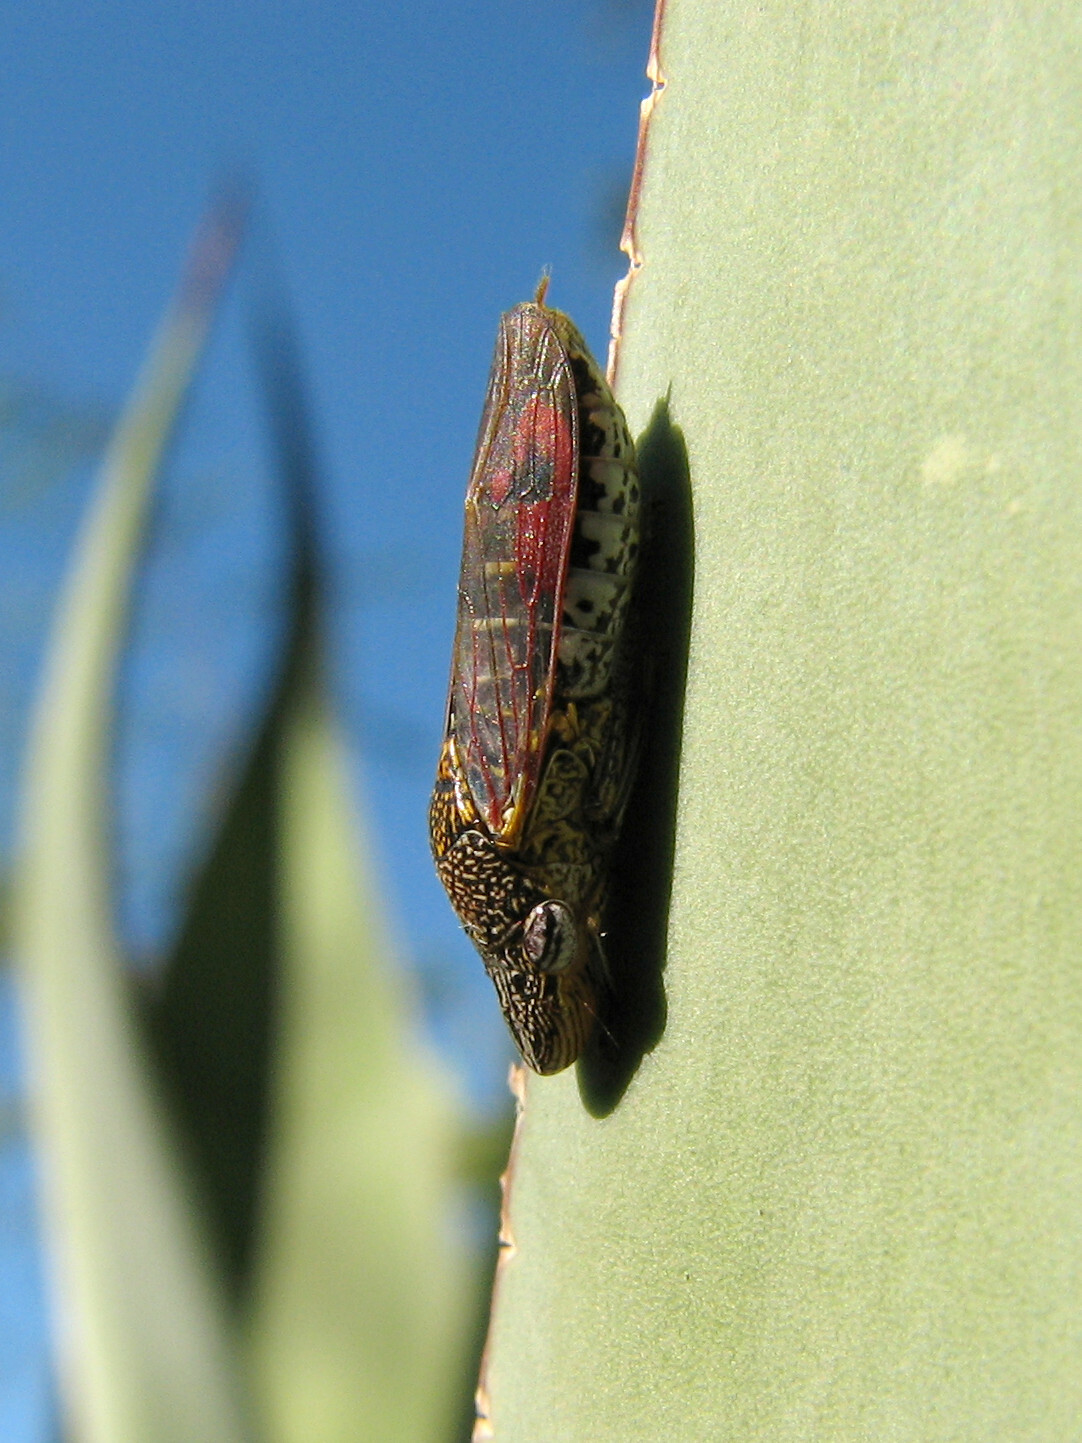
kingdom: Animalia
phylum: Arthropoda
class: Insecta
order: Hemiptera
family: Cicadellidae
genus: Homalodisca
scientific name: Homalodisca liturata
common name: Lacertate sharpshooter
